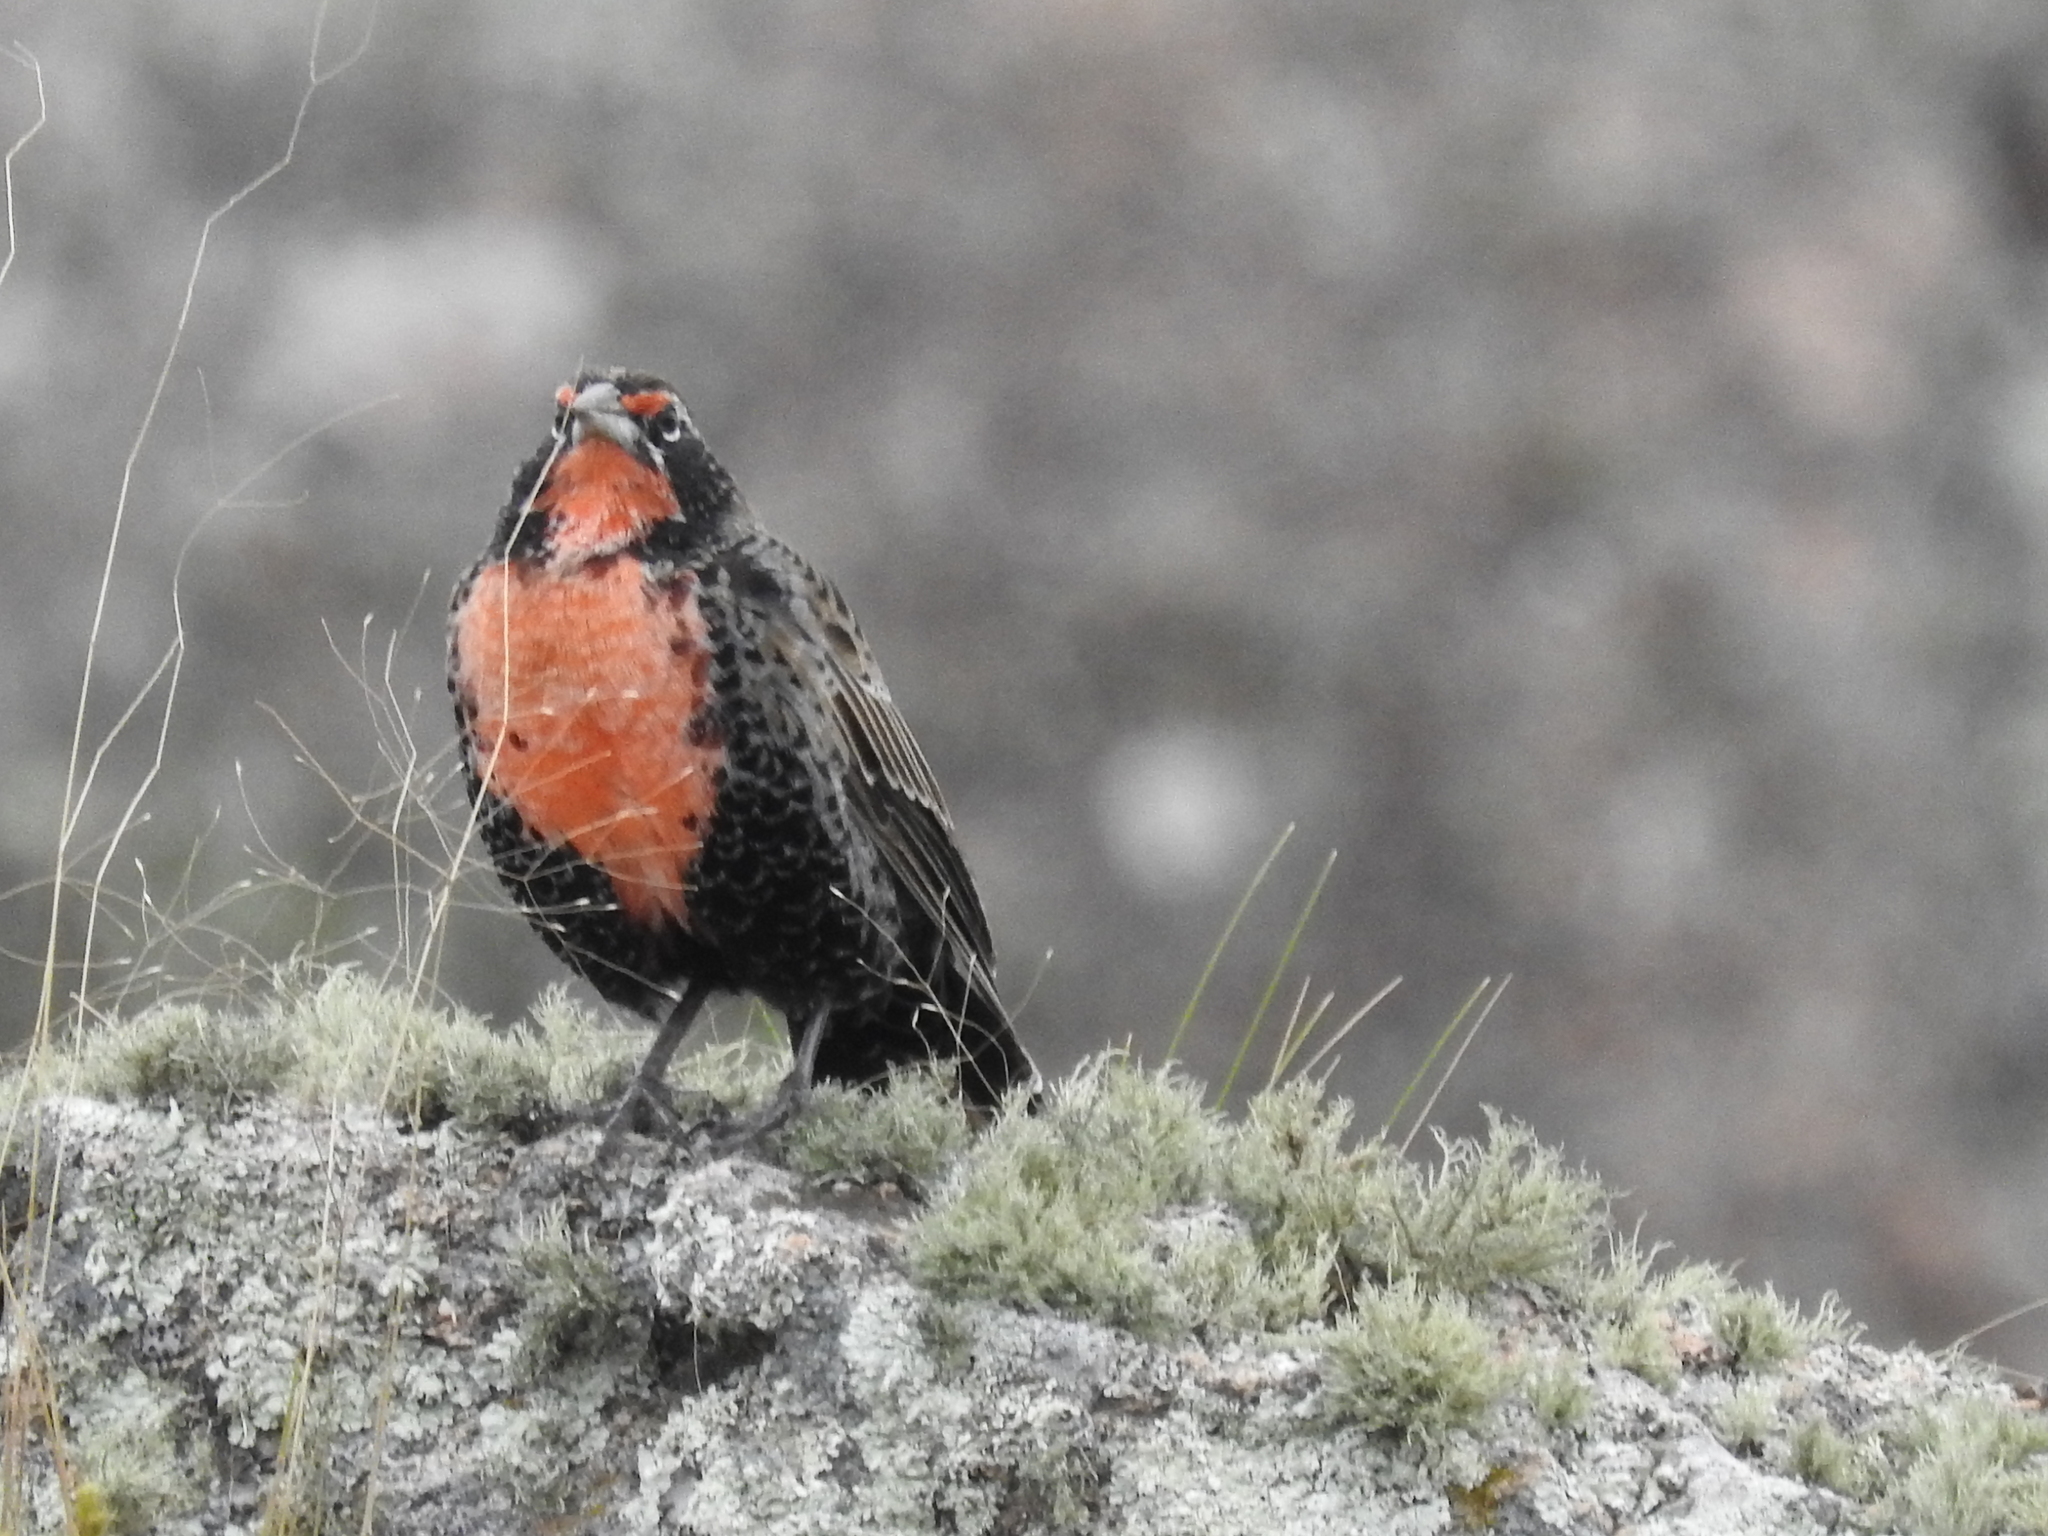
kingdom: Animalia
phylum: Chordata
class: Aves
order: Passeriformes
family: Icteridae
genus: Sturnella
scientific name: Sturnella loyca
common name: Long-tailed meadowlark
